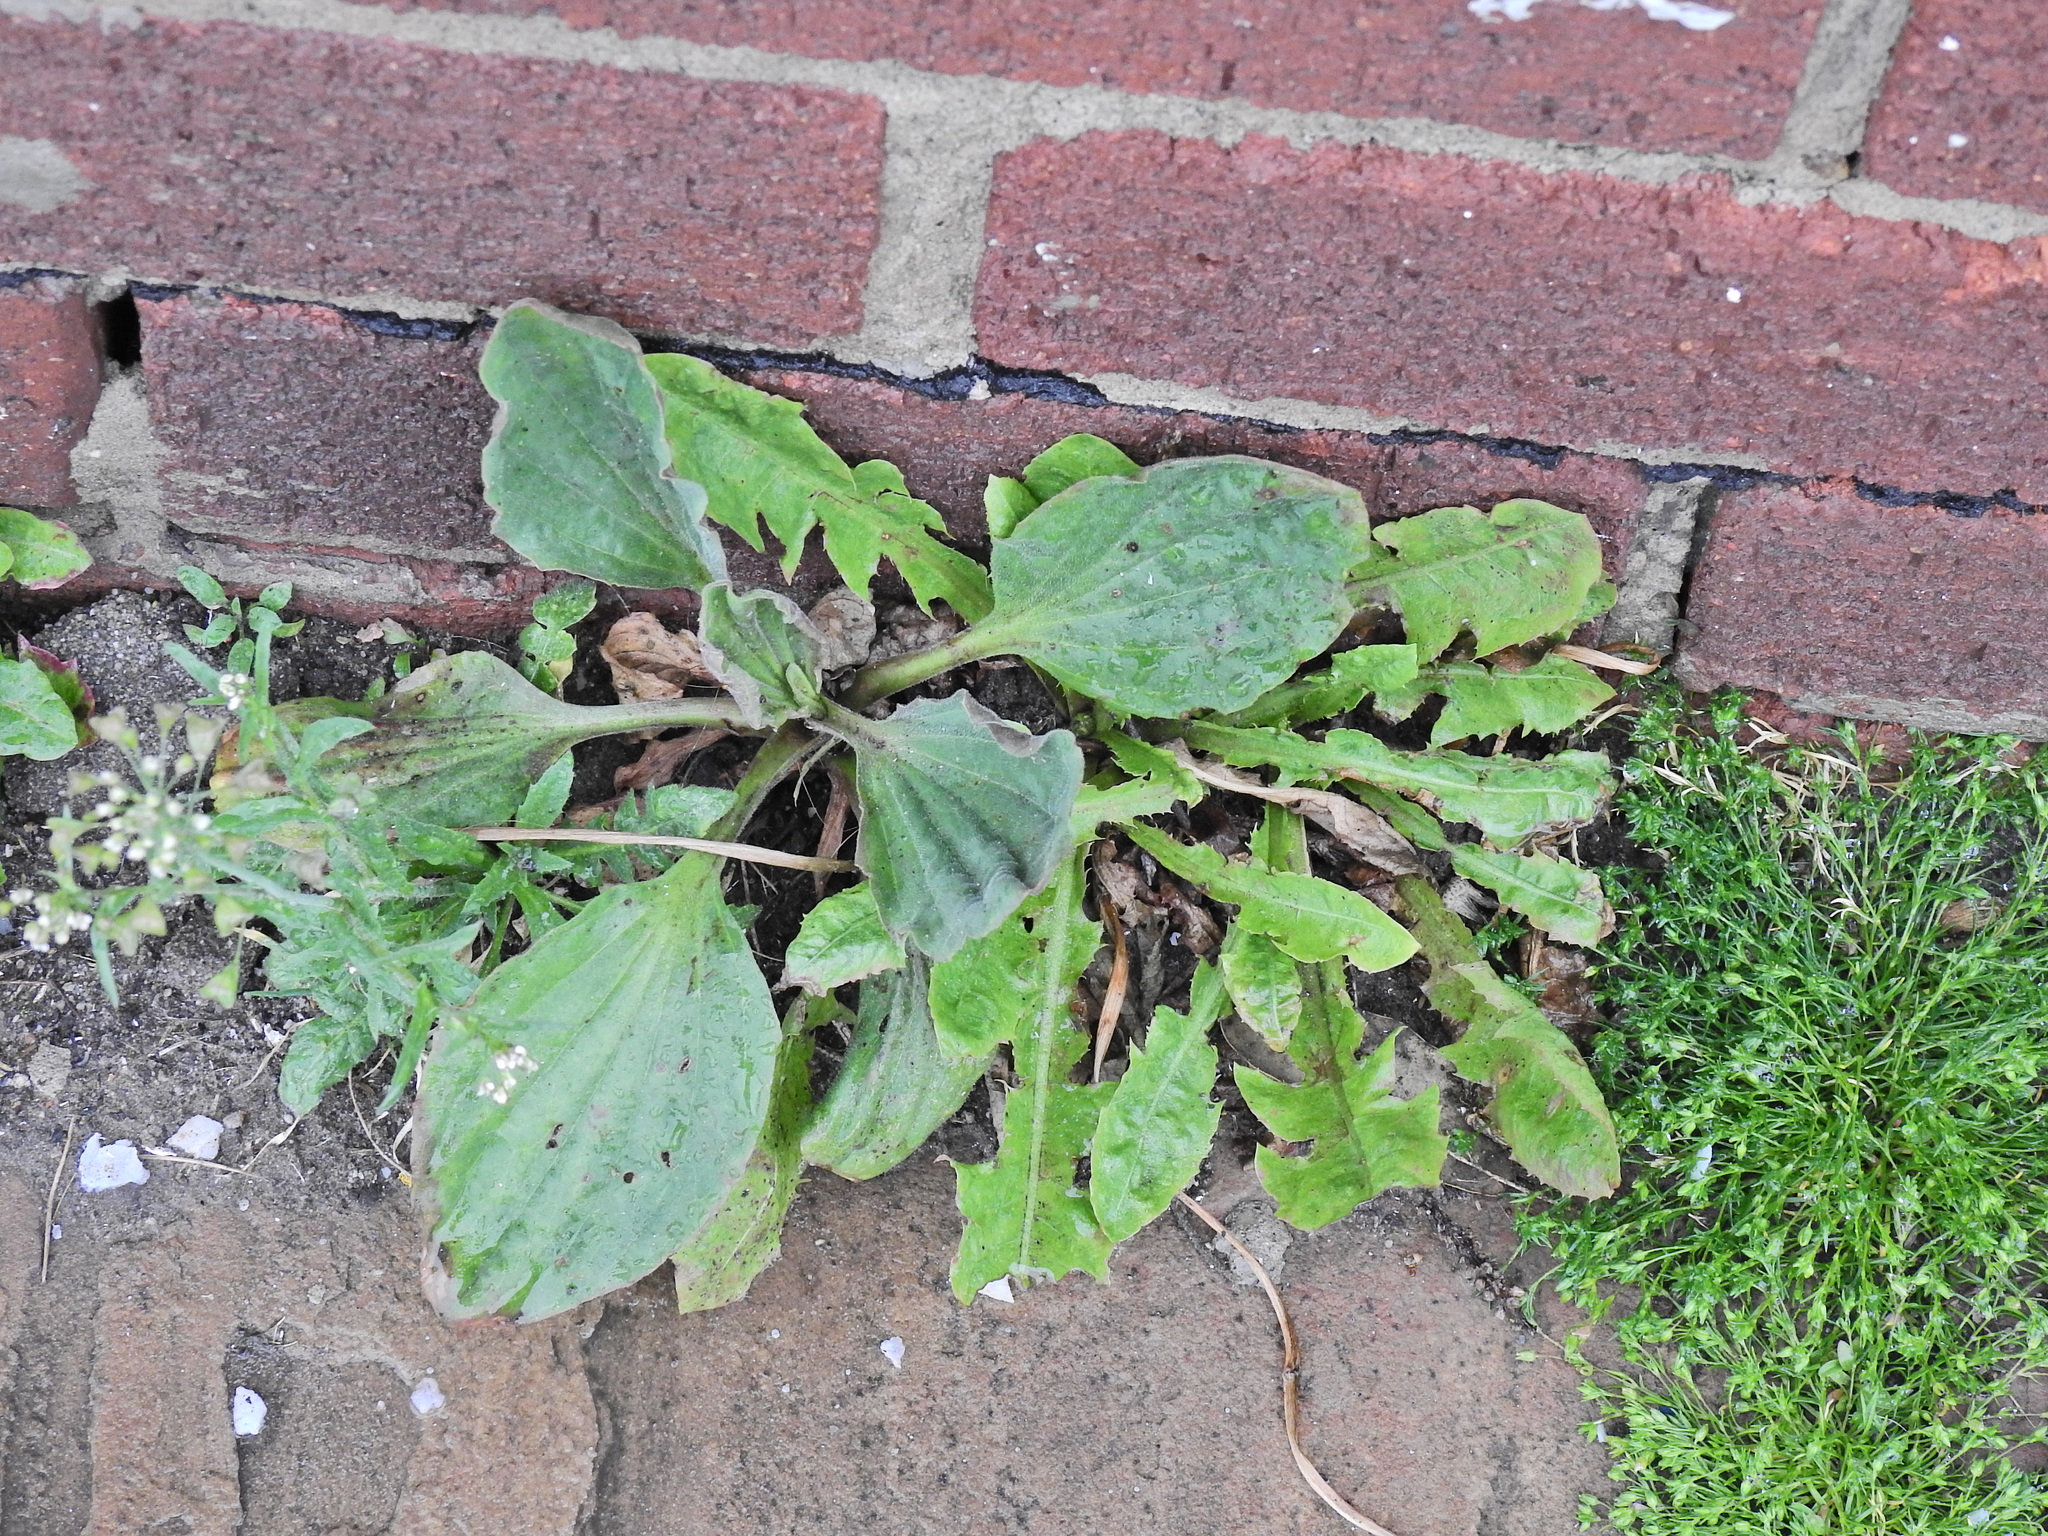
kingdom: Plantae
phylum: Tracheophyta
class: Magnoliopsida
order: Lamiales
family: Plantaginaceae
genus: Plantago
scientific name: Plantago major
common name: Common plantain
